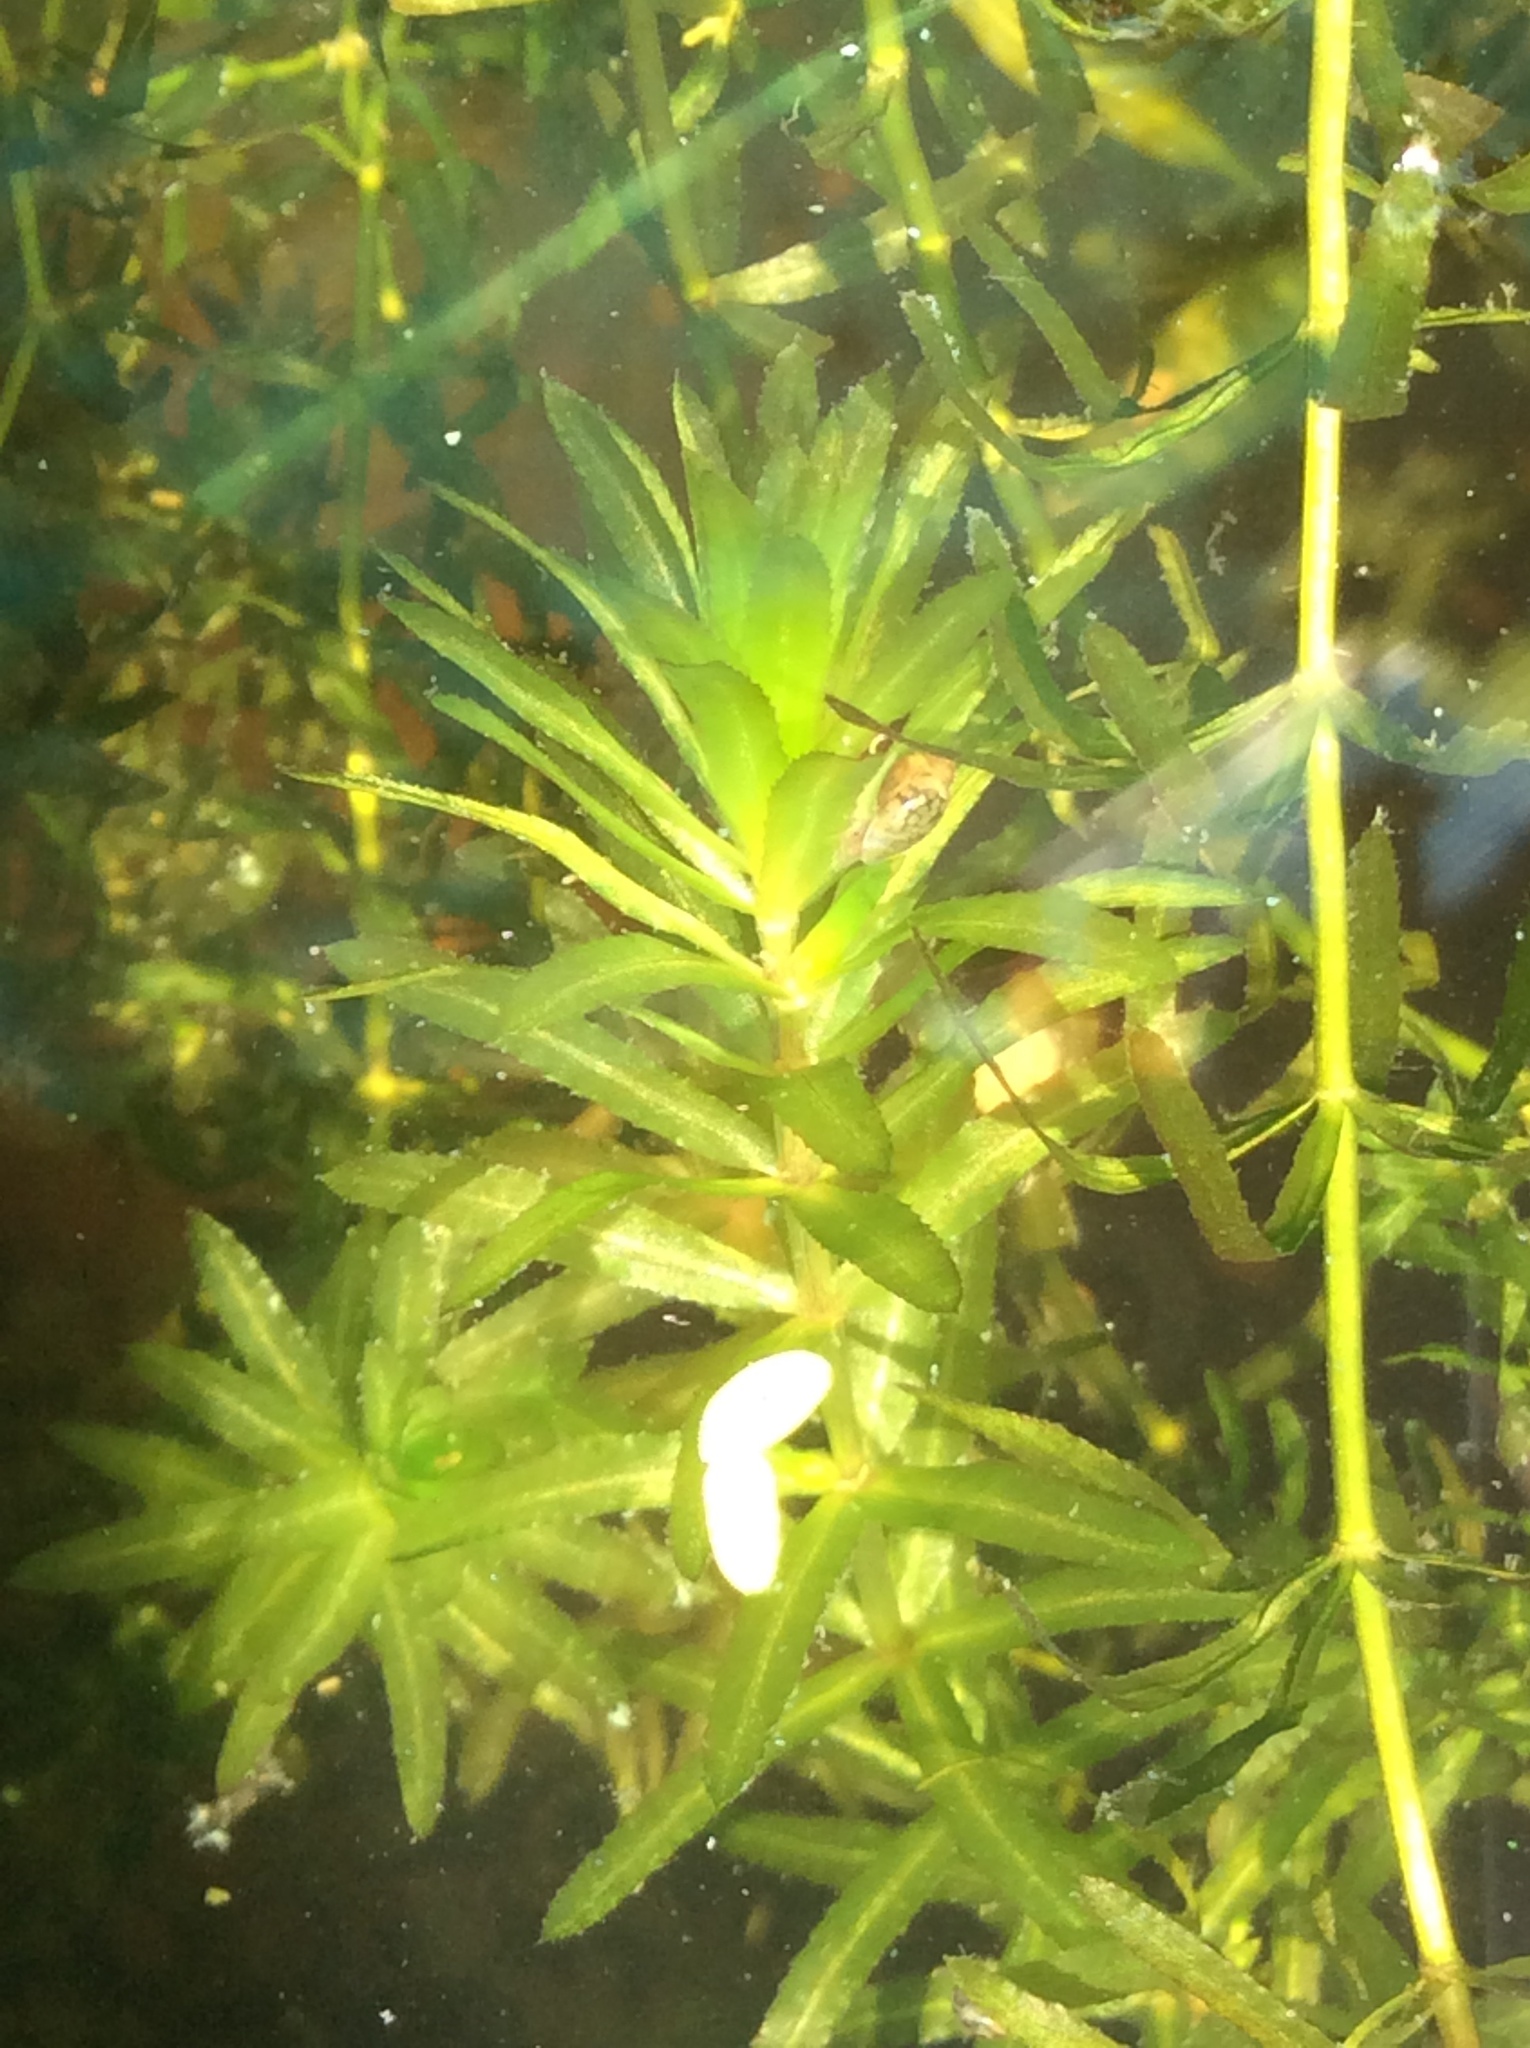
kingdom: Plantae
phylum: Tracheophyta
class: Liliopsida
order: Alismatales
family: Hydrocharitaceae
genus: Hydrilla
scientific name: Hydrilla verticillata
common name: Florida-elodea
